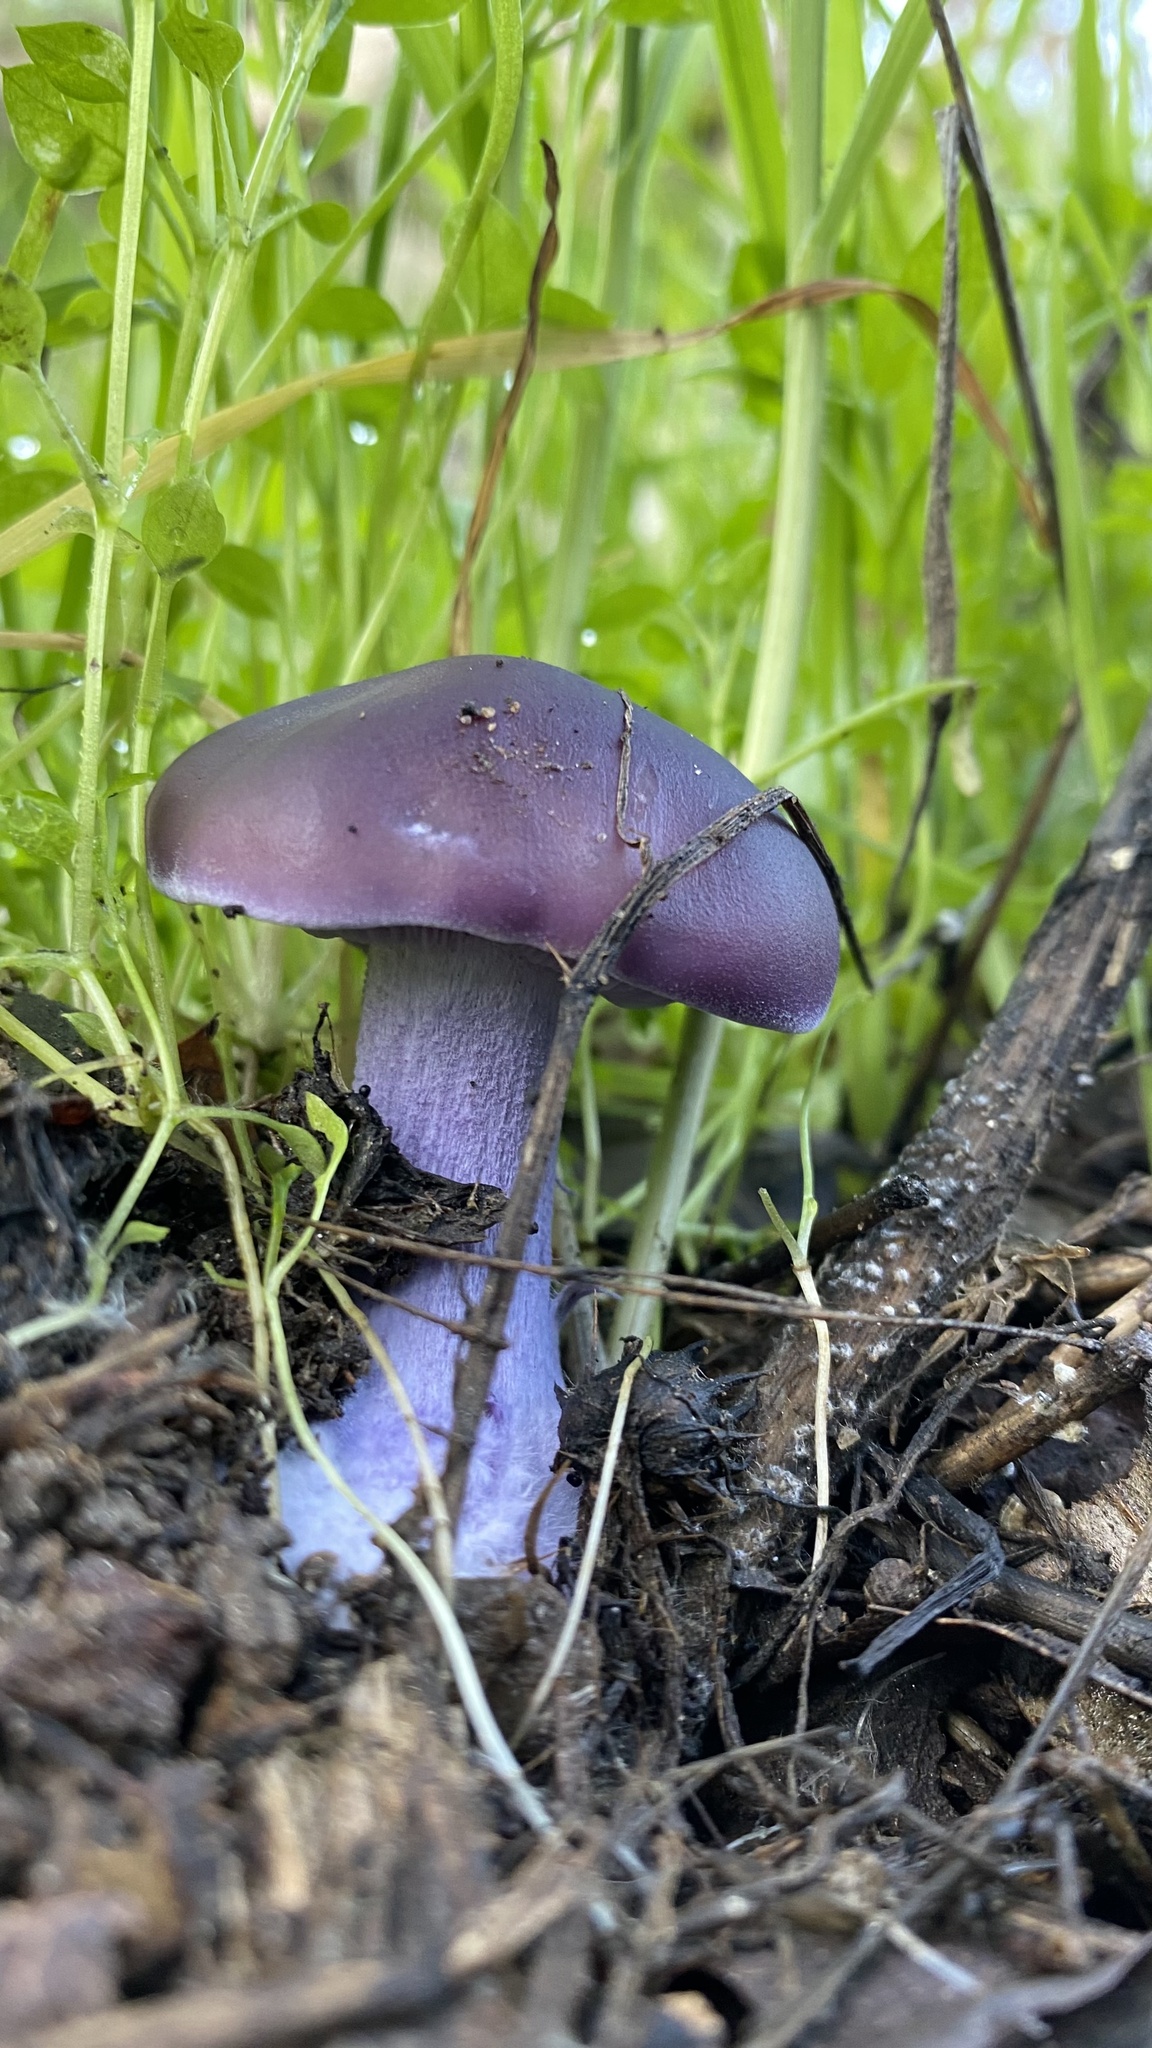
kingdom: Fungi
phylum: Basidiomycota
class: Agaricomycetes
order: Agaricales
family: Tricholomataceae
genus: Collybia
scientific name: Collybia
